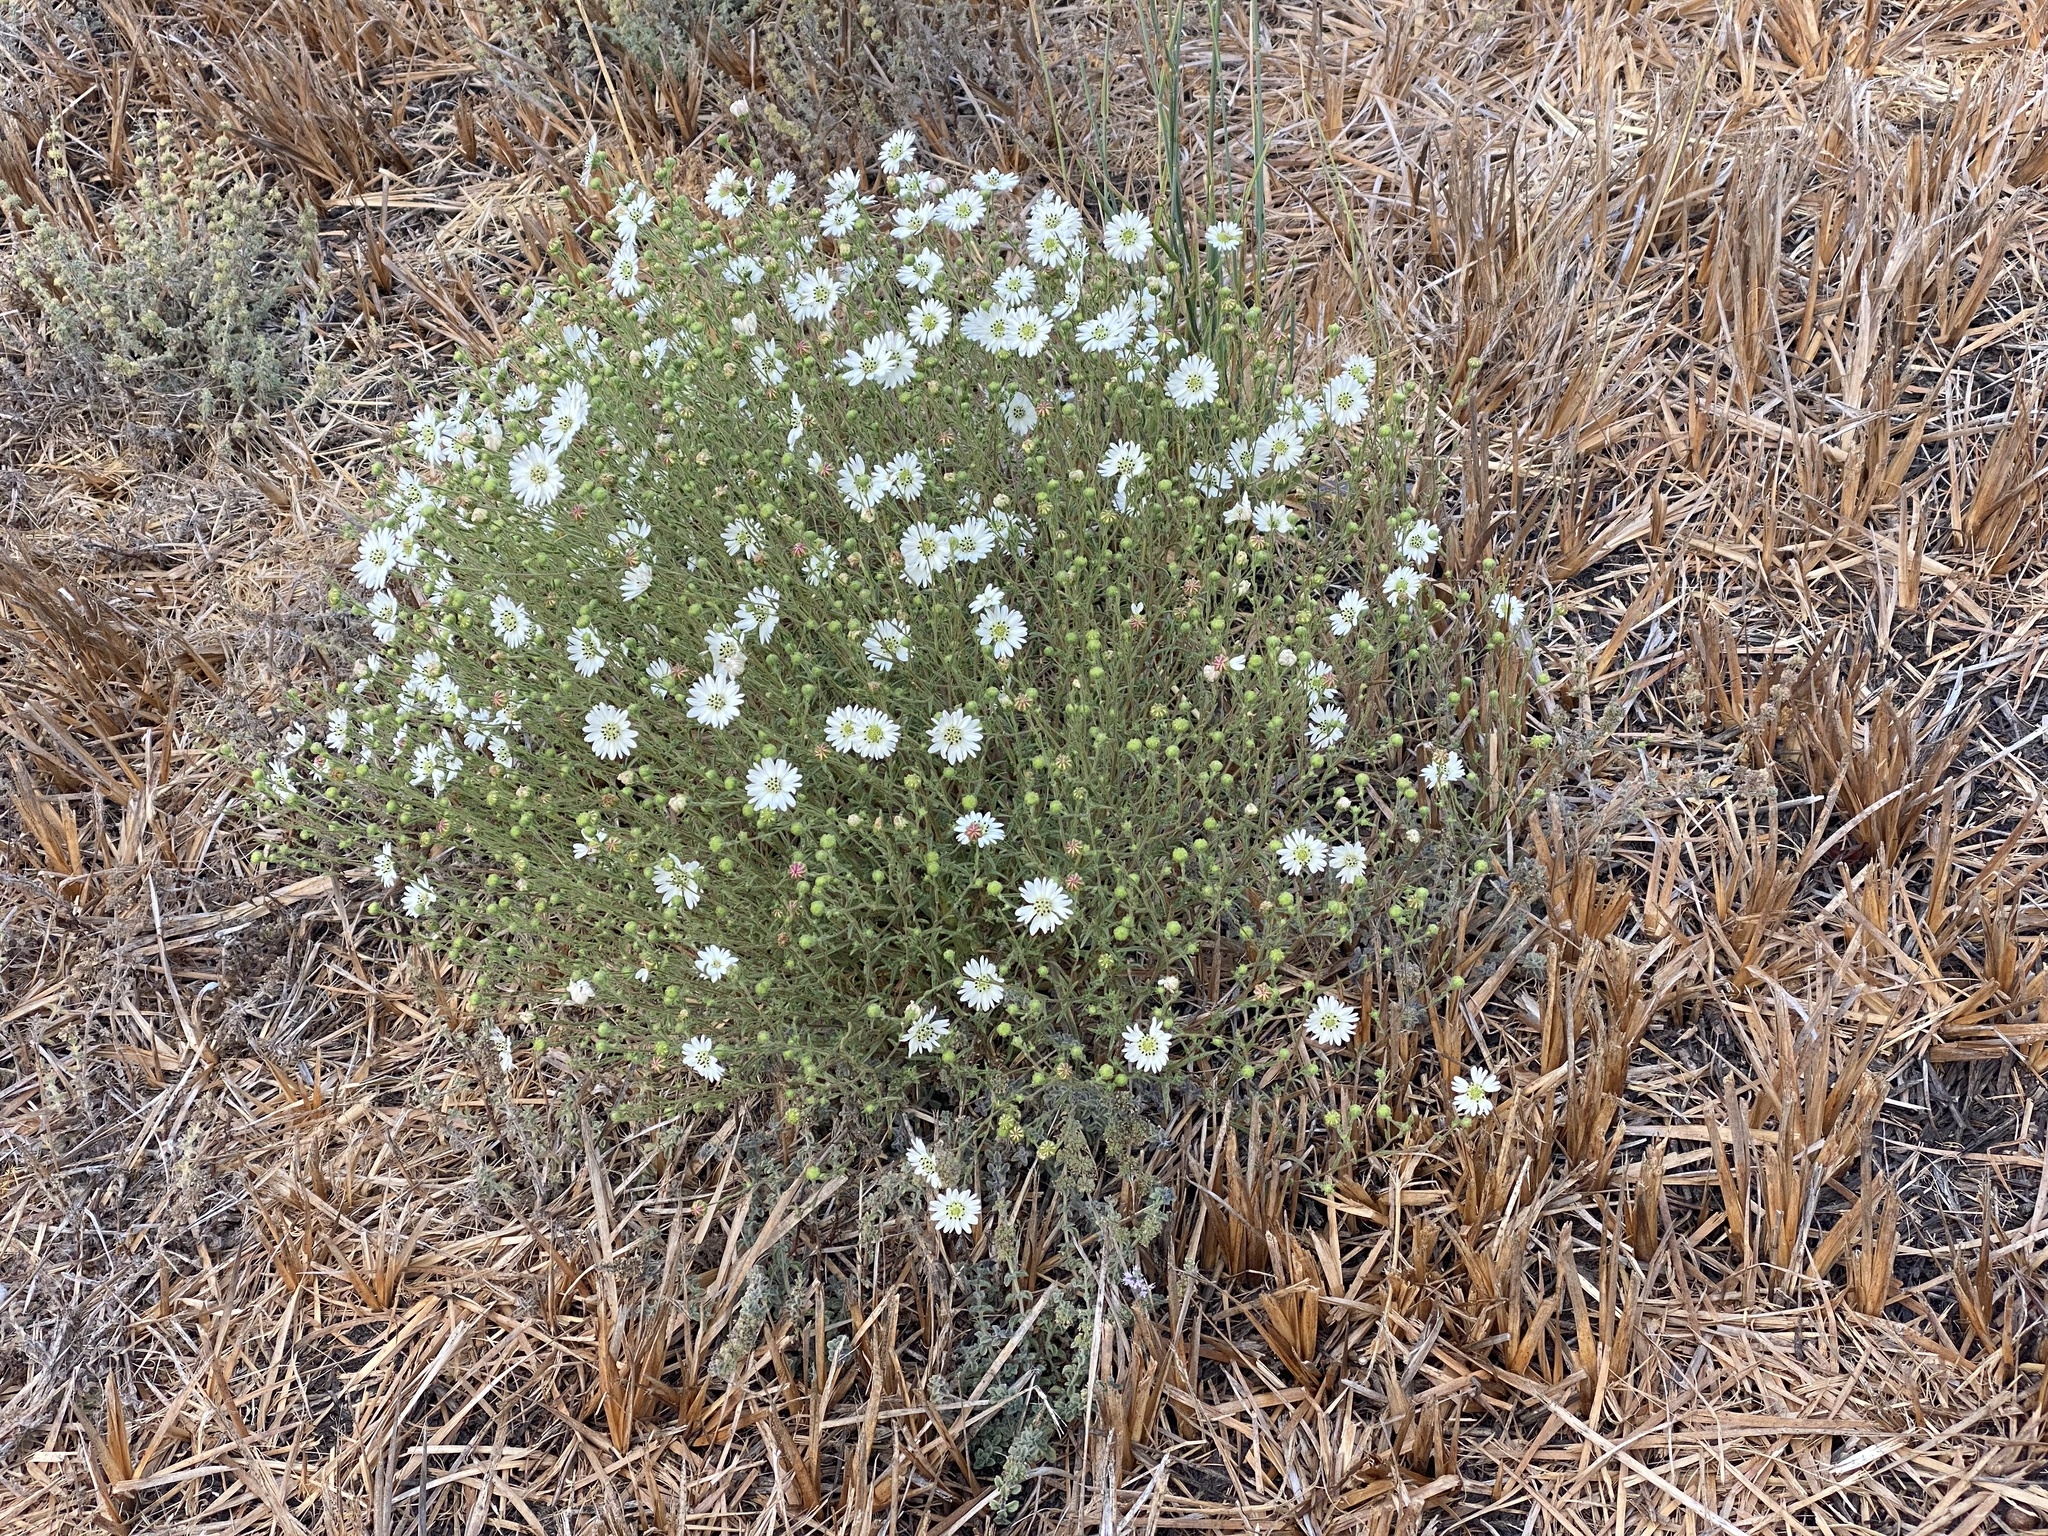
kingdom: Plantae
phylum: Tracheophyta
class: Magnoliopsida
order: Asterales
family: Asteraceae
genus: Hemizonia
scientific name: Hemizonia congesta
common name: Hayfield tarweed
